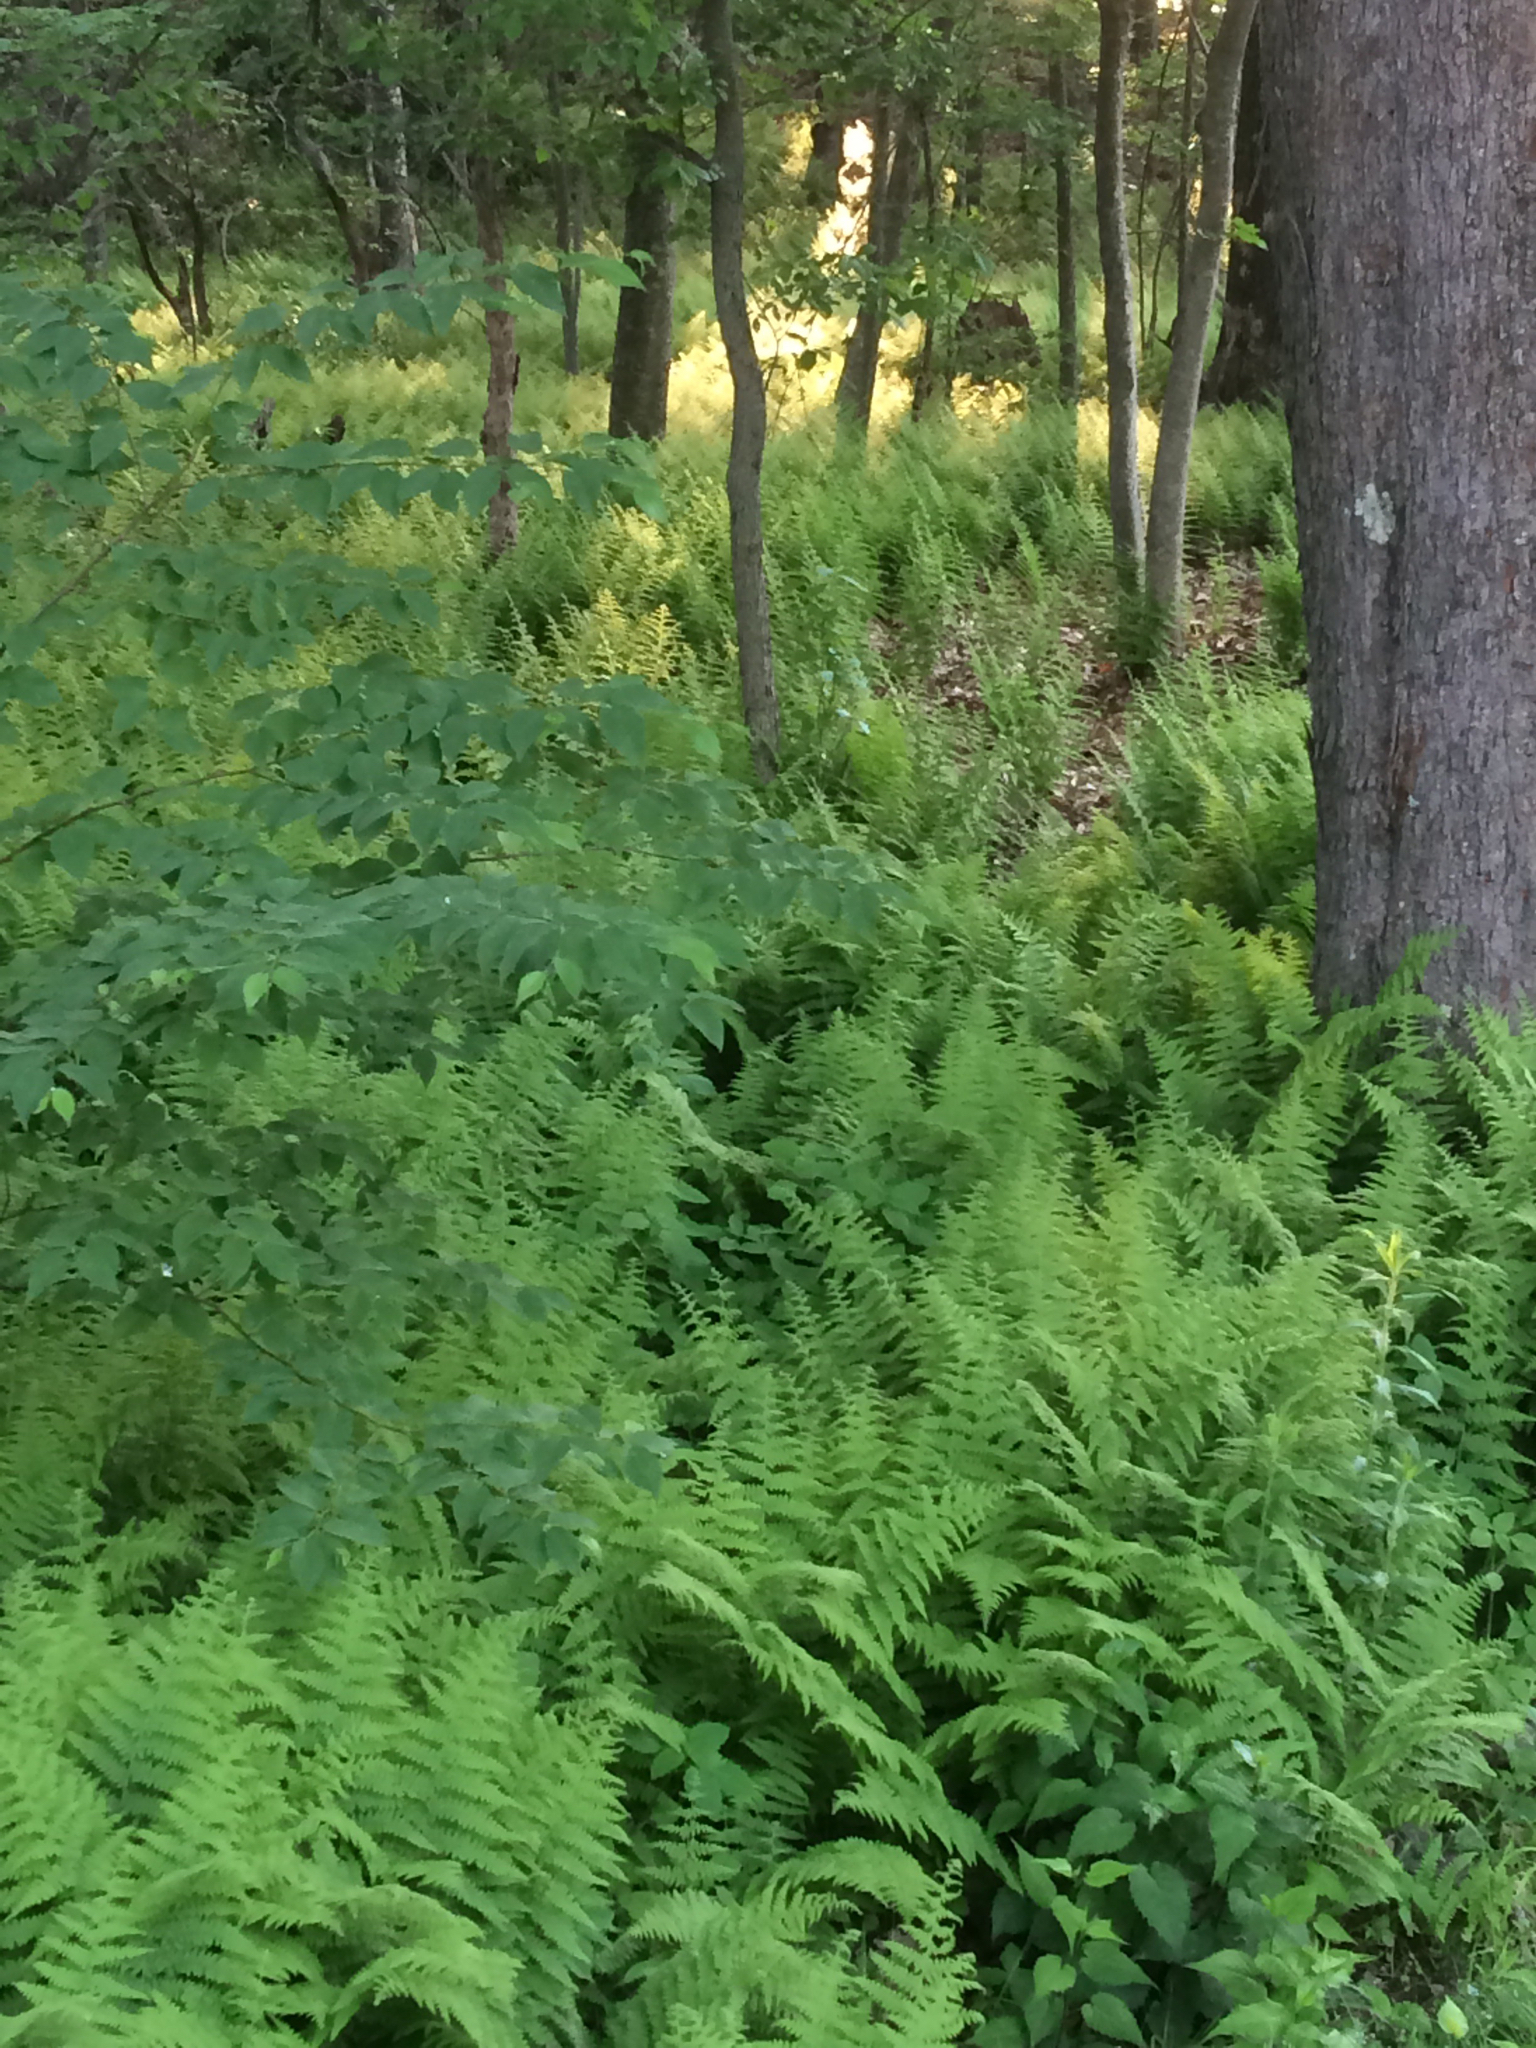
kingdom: Plantae
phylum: Tracheophyta
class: Polypodiopsida
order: Polypodiales
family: Dennstaedtiaceae
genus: Sitobolium
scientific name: Sitobolium punctilobum
